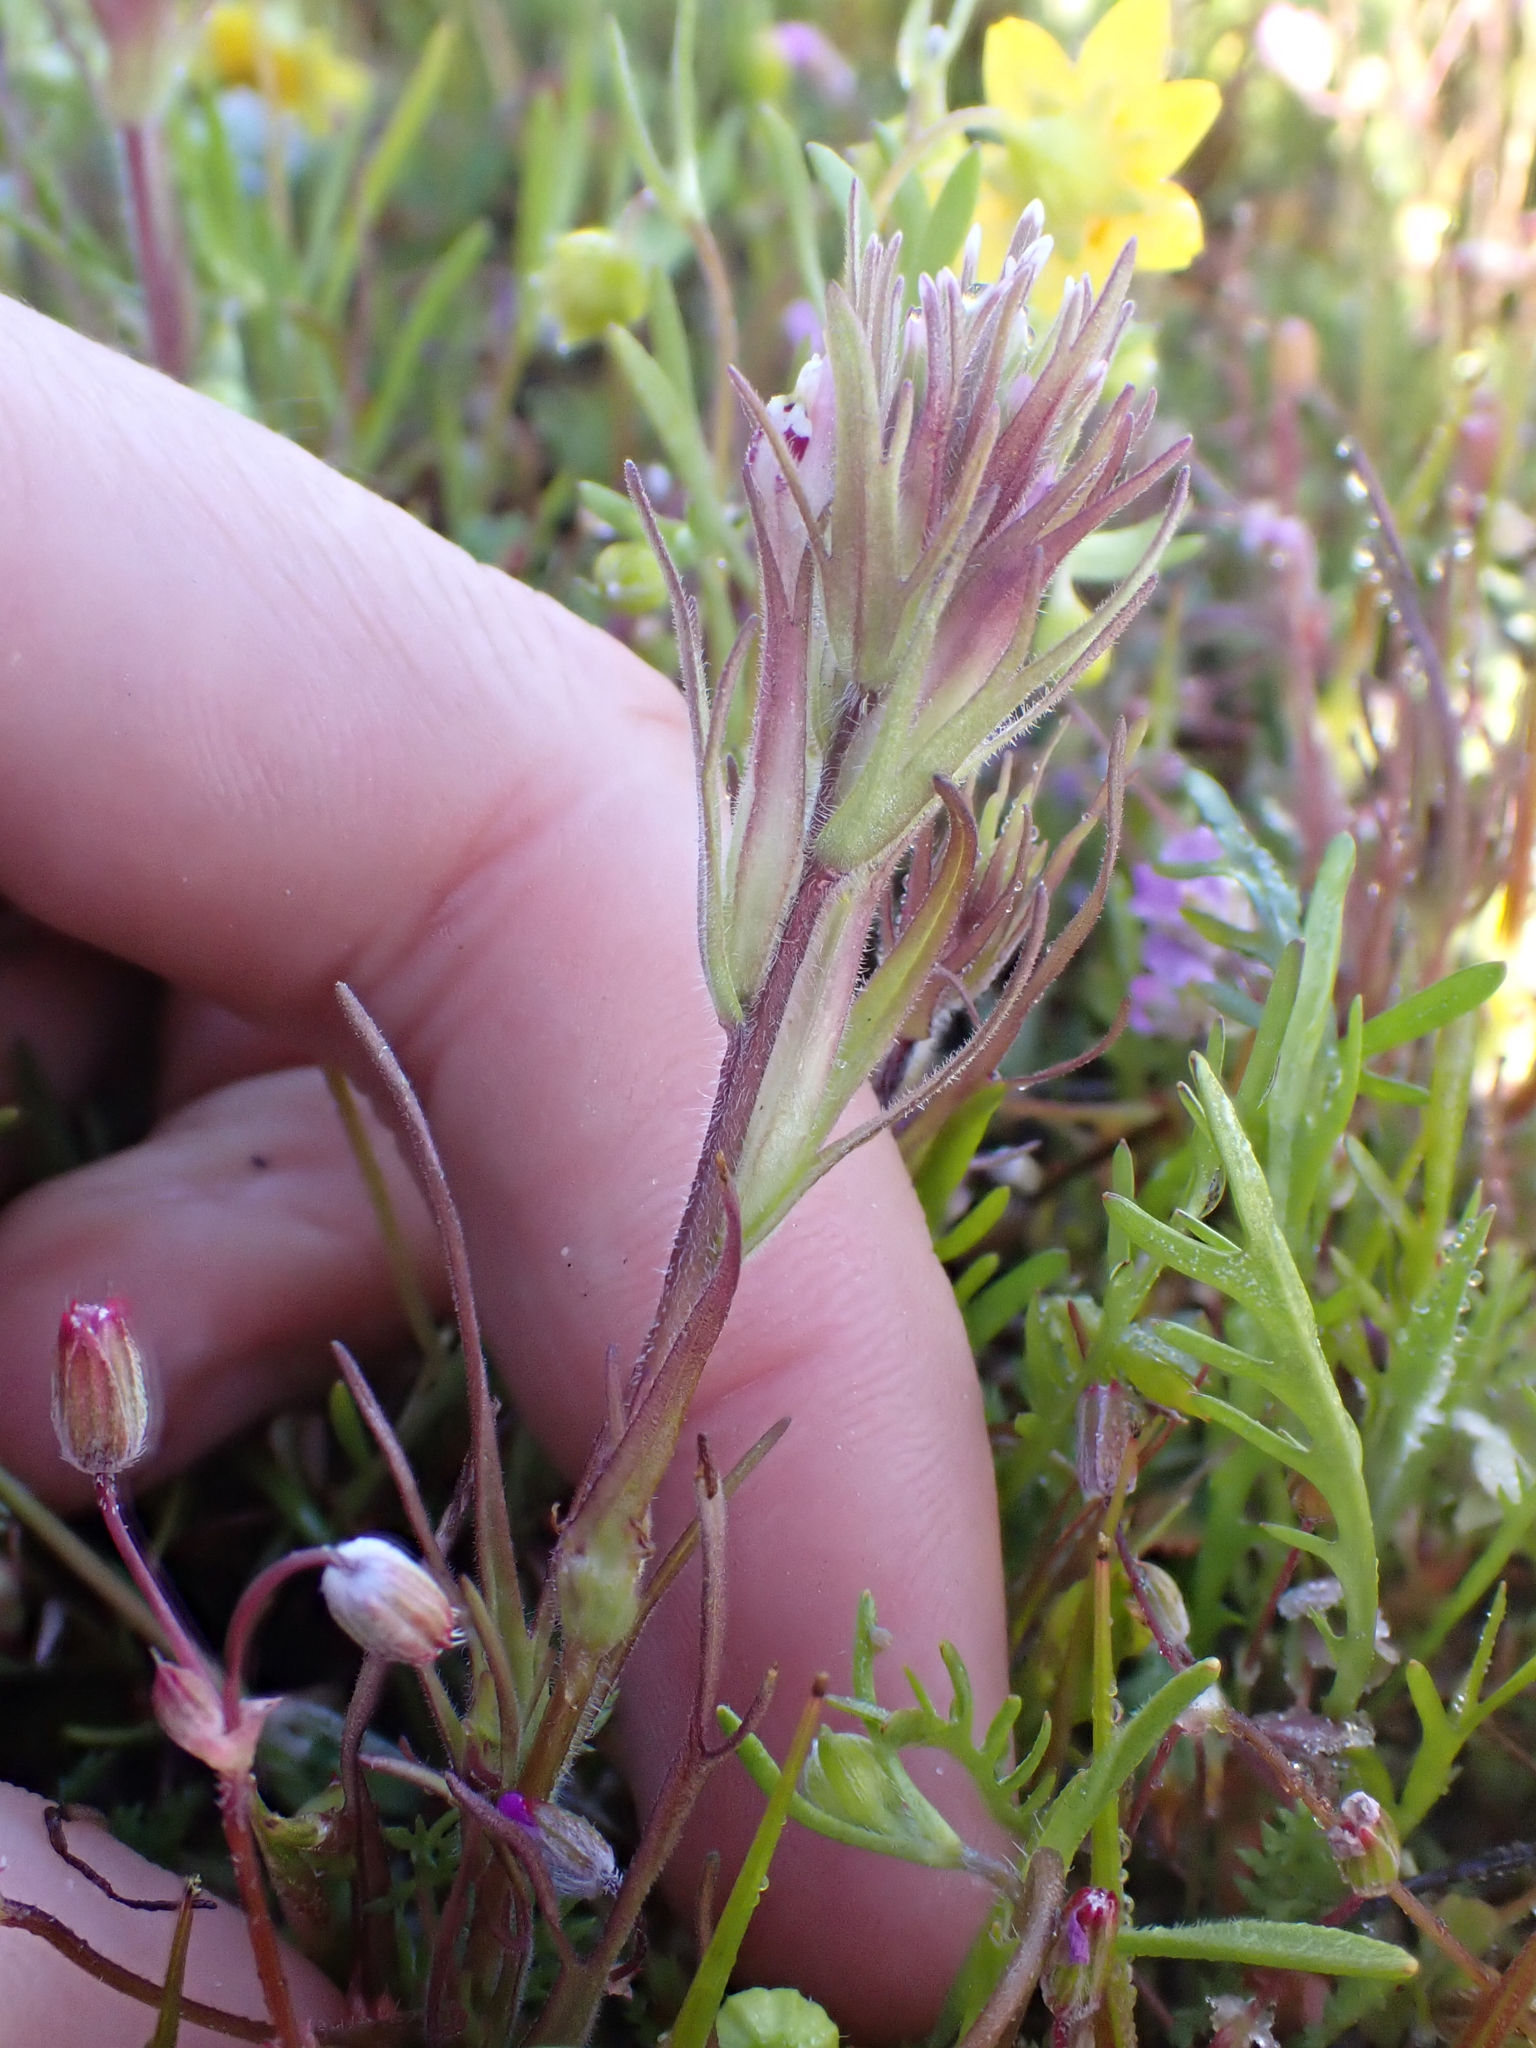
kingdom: Plantae
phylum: Tracheophyta
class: Magnoliopsida
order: Lamiales
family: Orobanchaceae
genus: Castilleja
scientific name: Castilleja brevistyla
